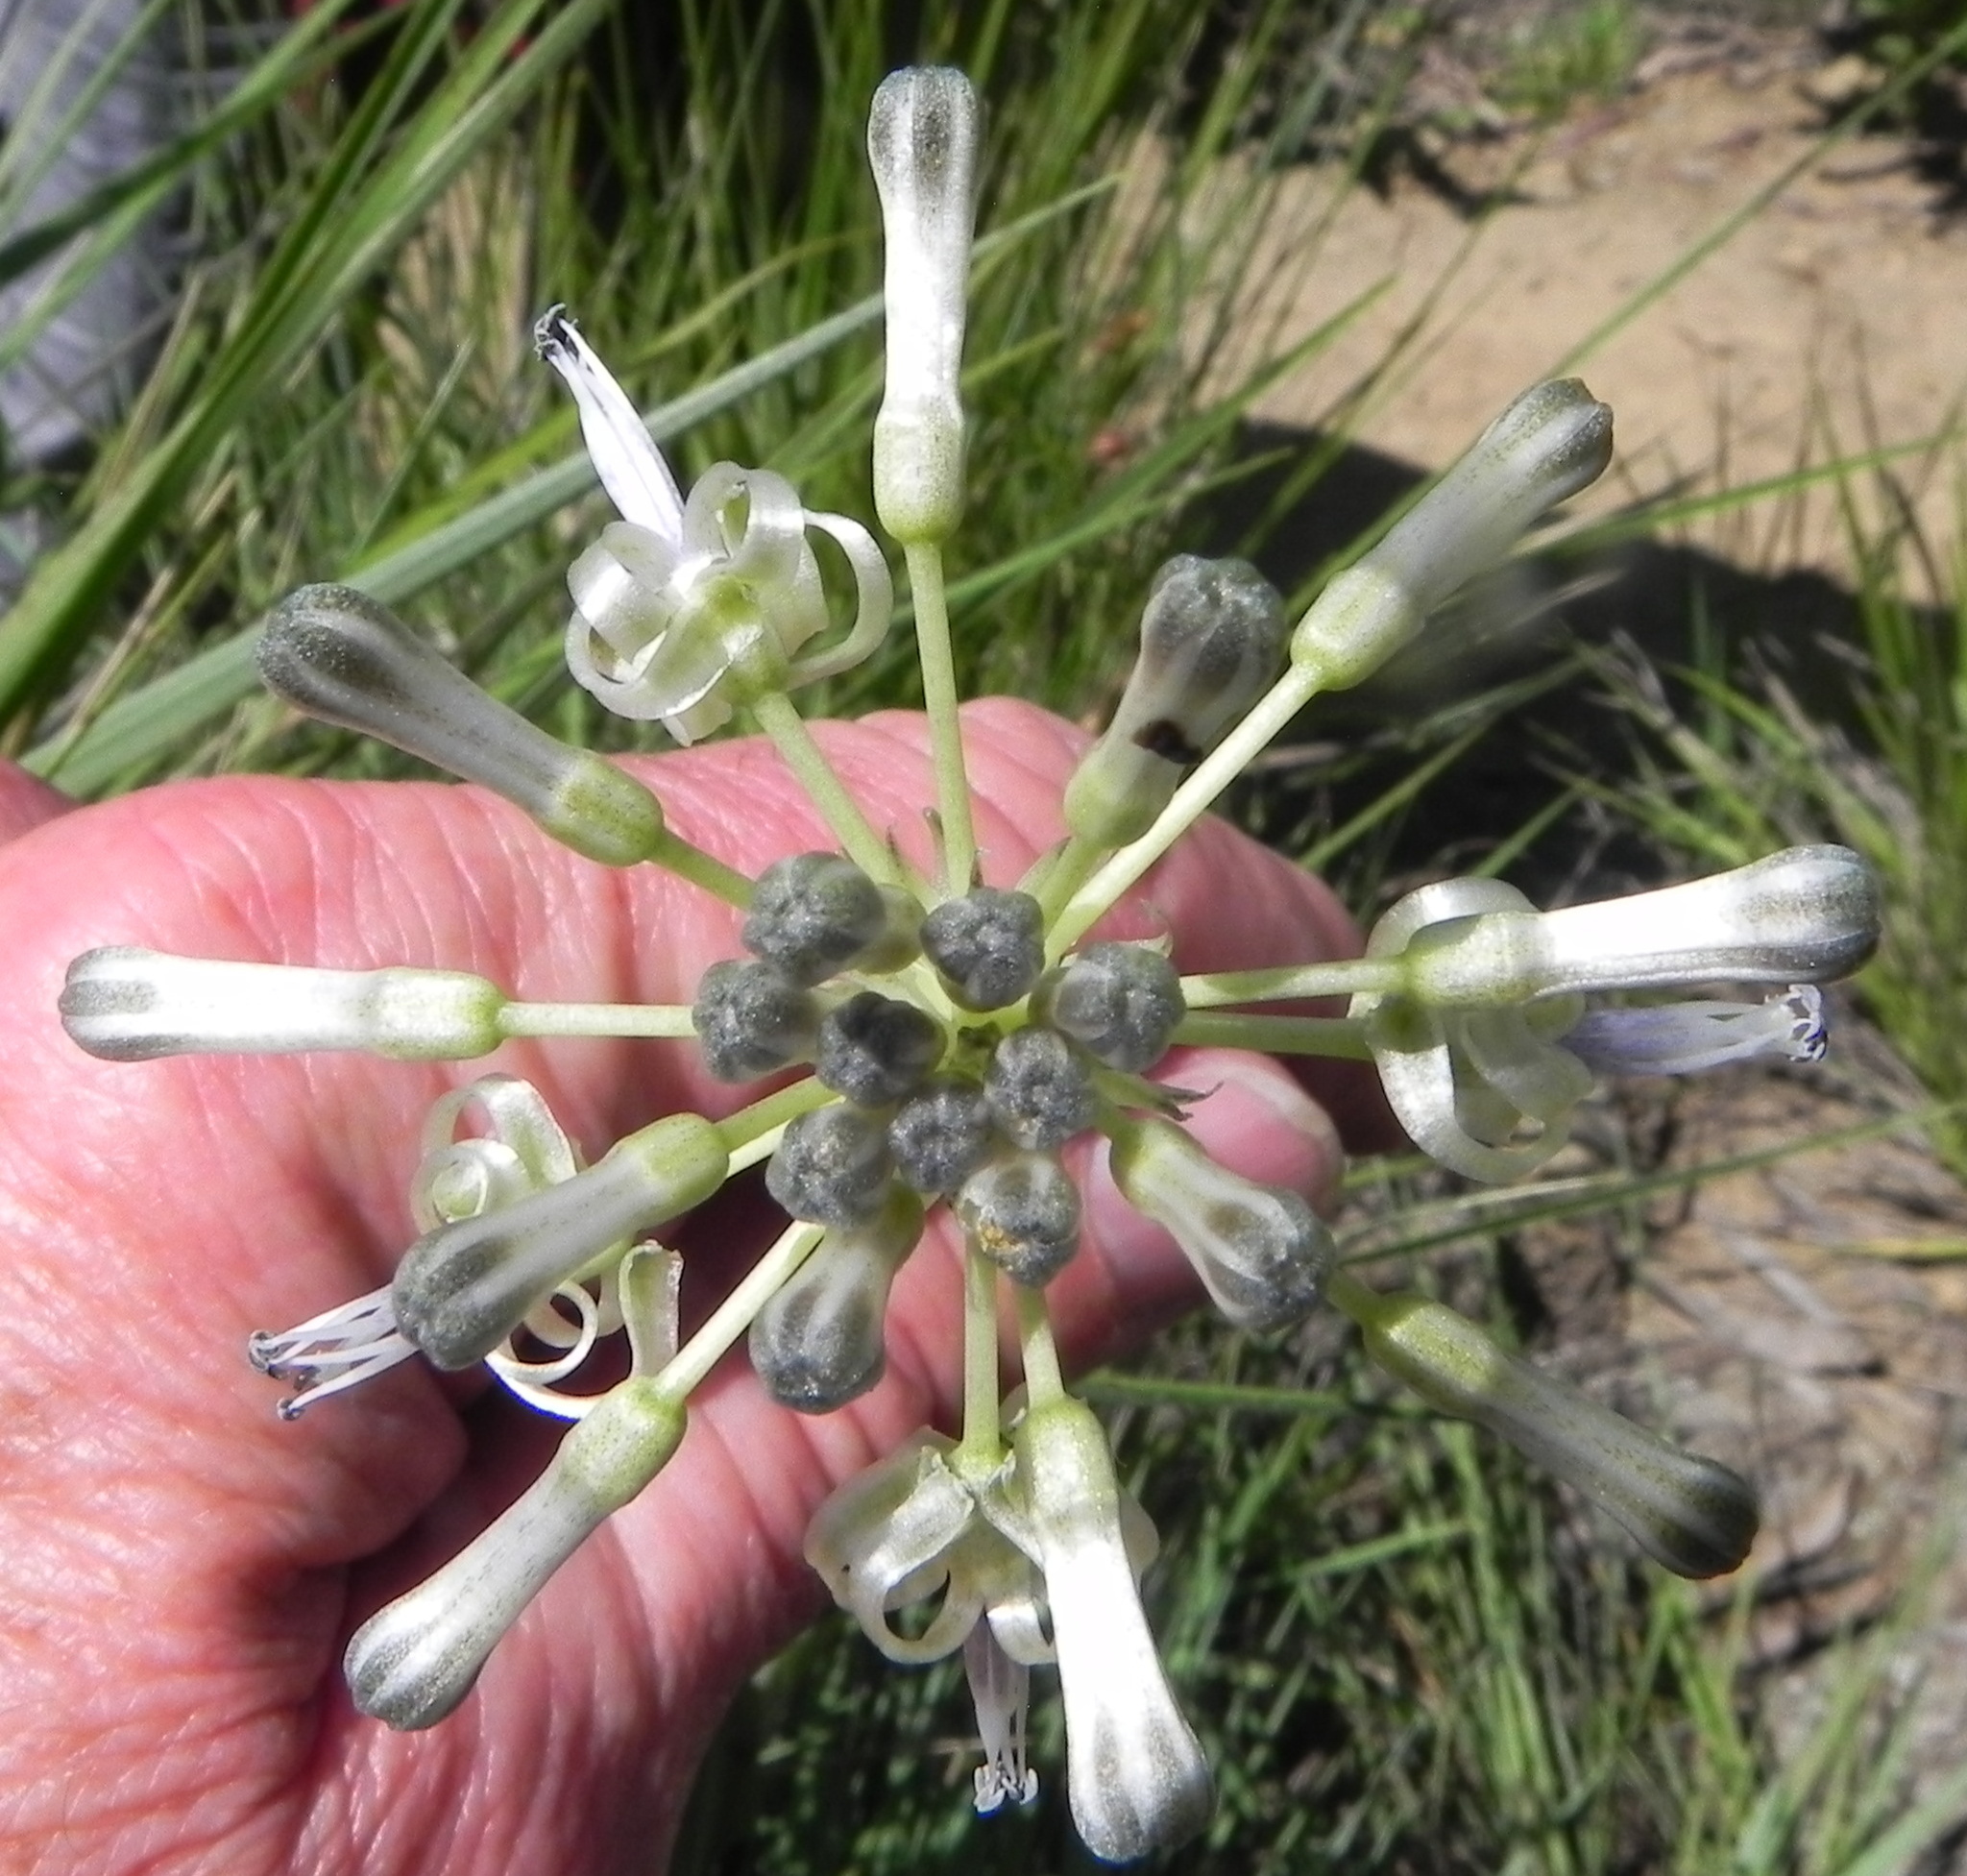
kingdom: Plantae
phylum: Tracheophyta
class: Liliopsida
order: Asparagales
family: Asparagaceae
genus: Drimia
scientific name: Drimia sphaerocephala
